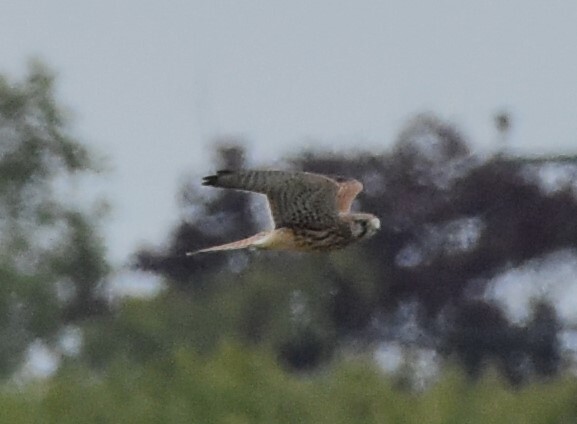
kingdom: Animalia
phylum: Chordata
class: Aves
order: Falconiformes
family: Falconidae
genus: Falco
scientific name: Falco tinnunculus
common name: Common kestrel
